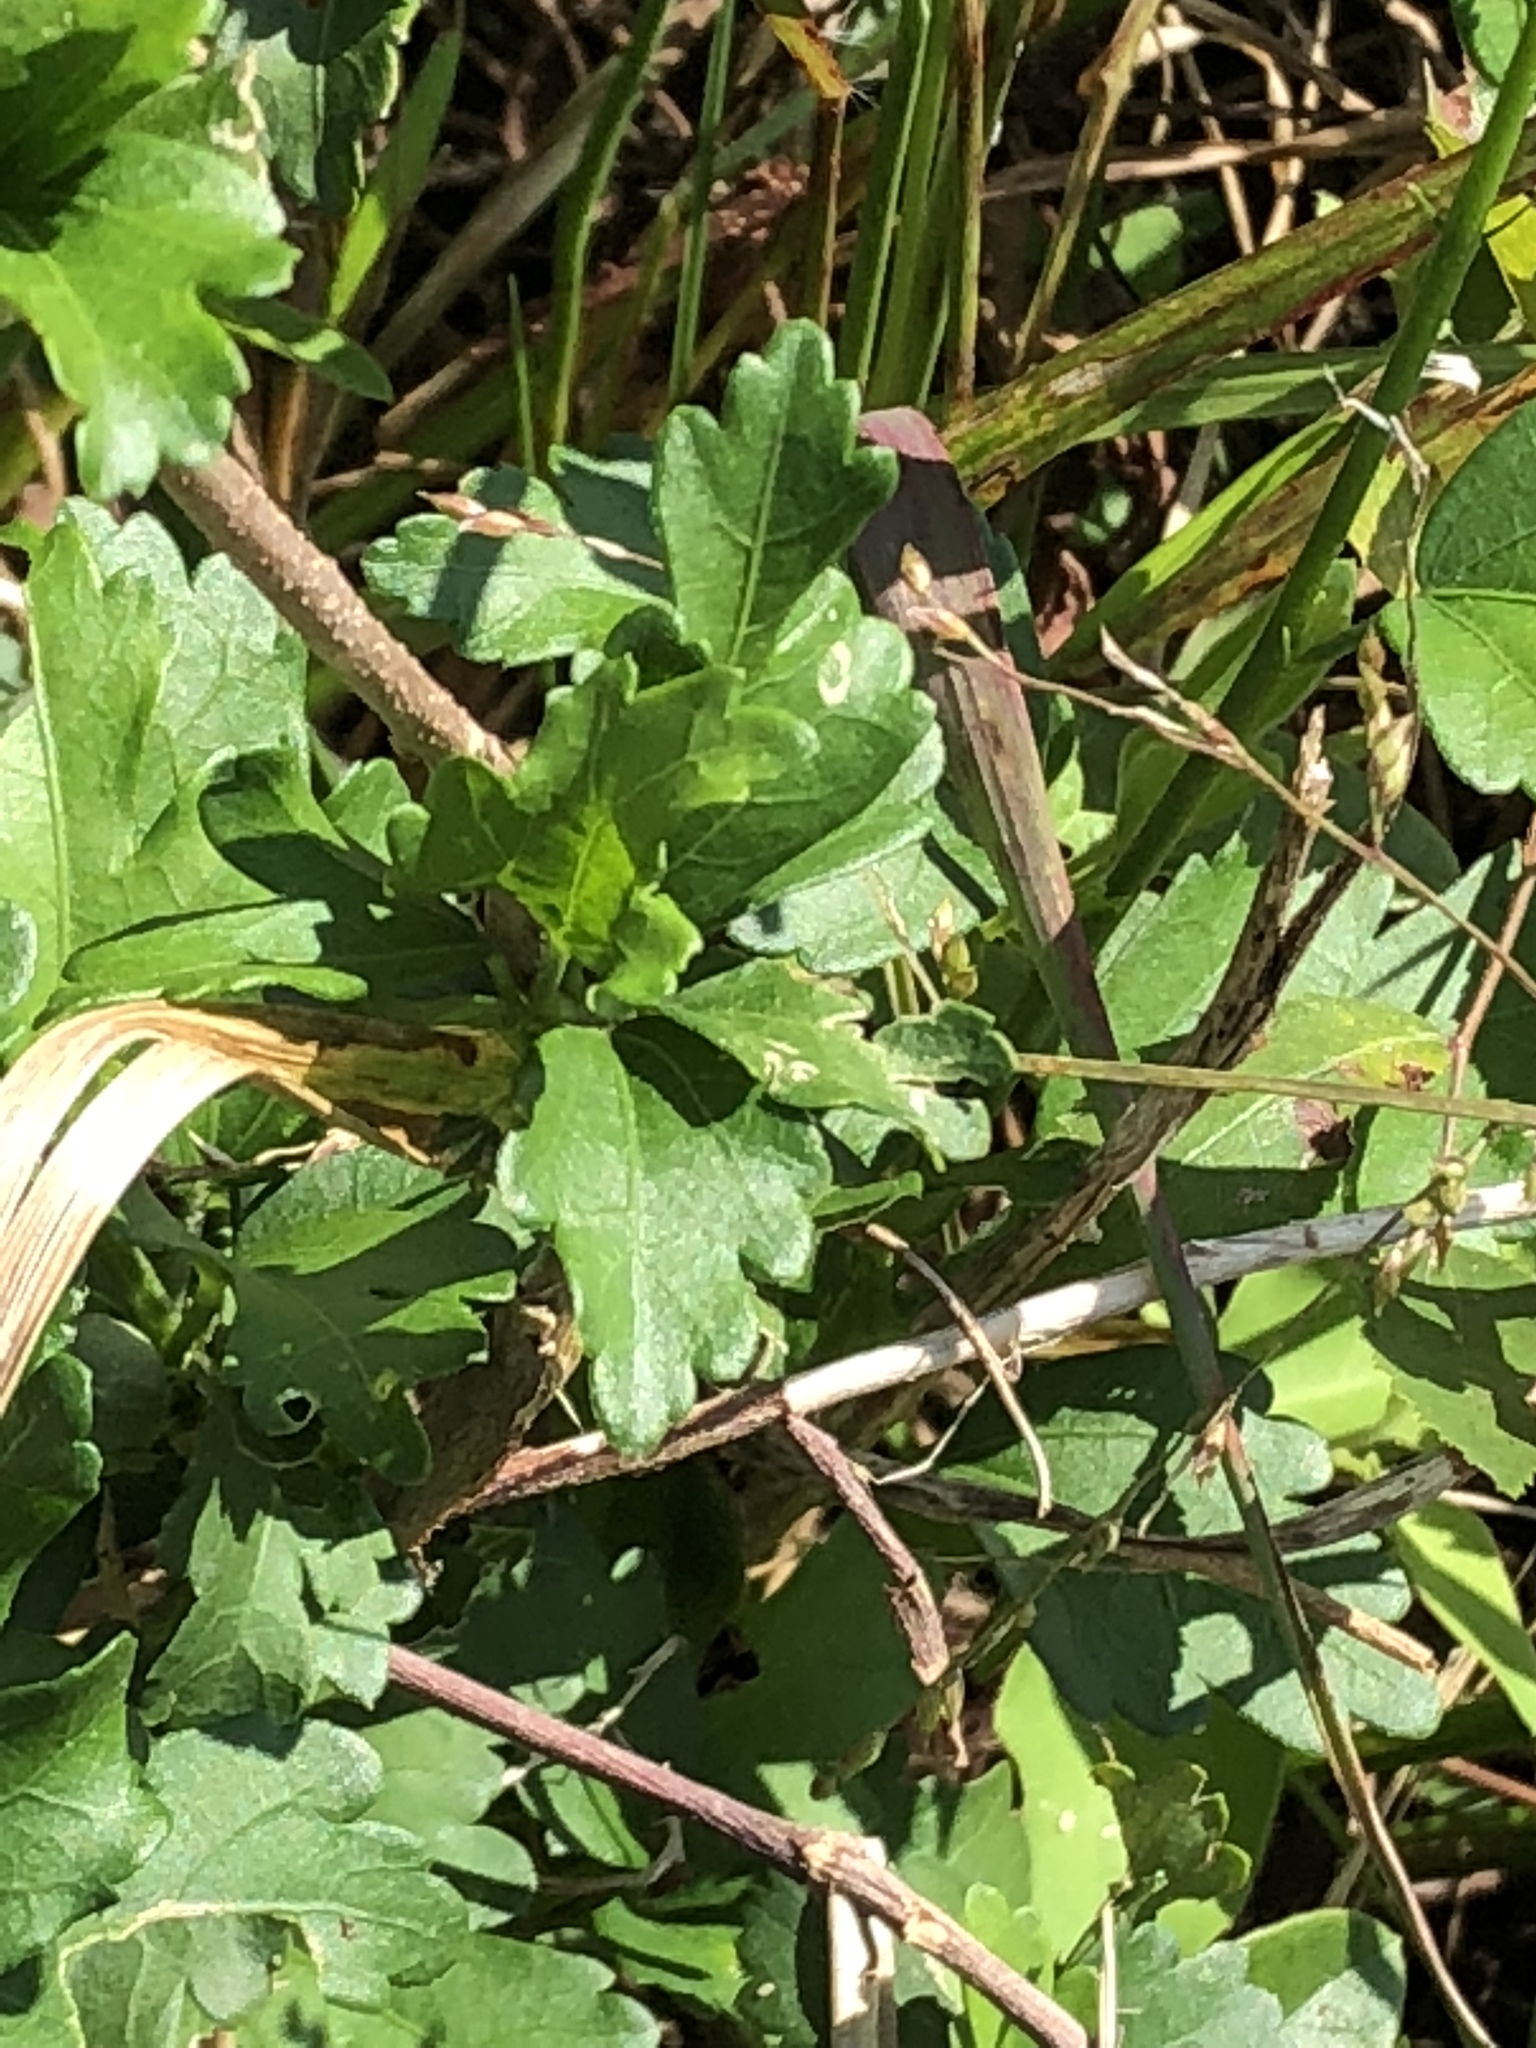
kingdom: Plantae
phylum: Tracheophyta
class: Magnoliopsida
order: Malvales
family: Malvaceae
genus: Hibiscus
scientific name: Hibiscus syriacus
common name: Syrian ketmia
